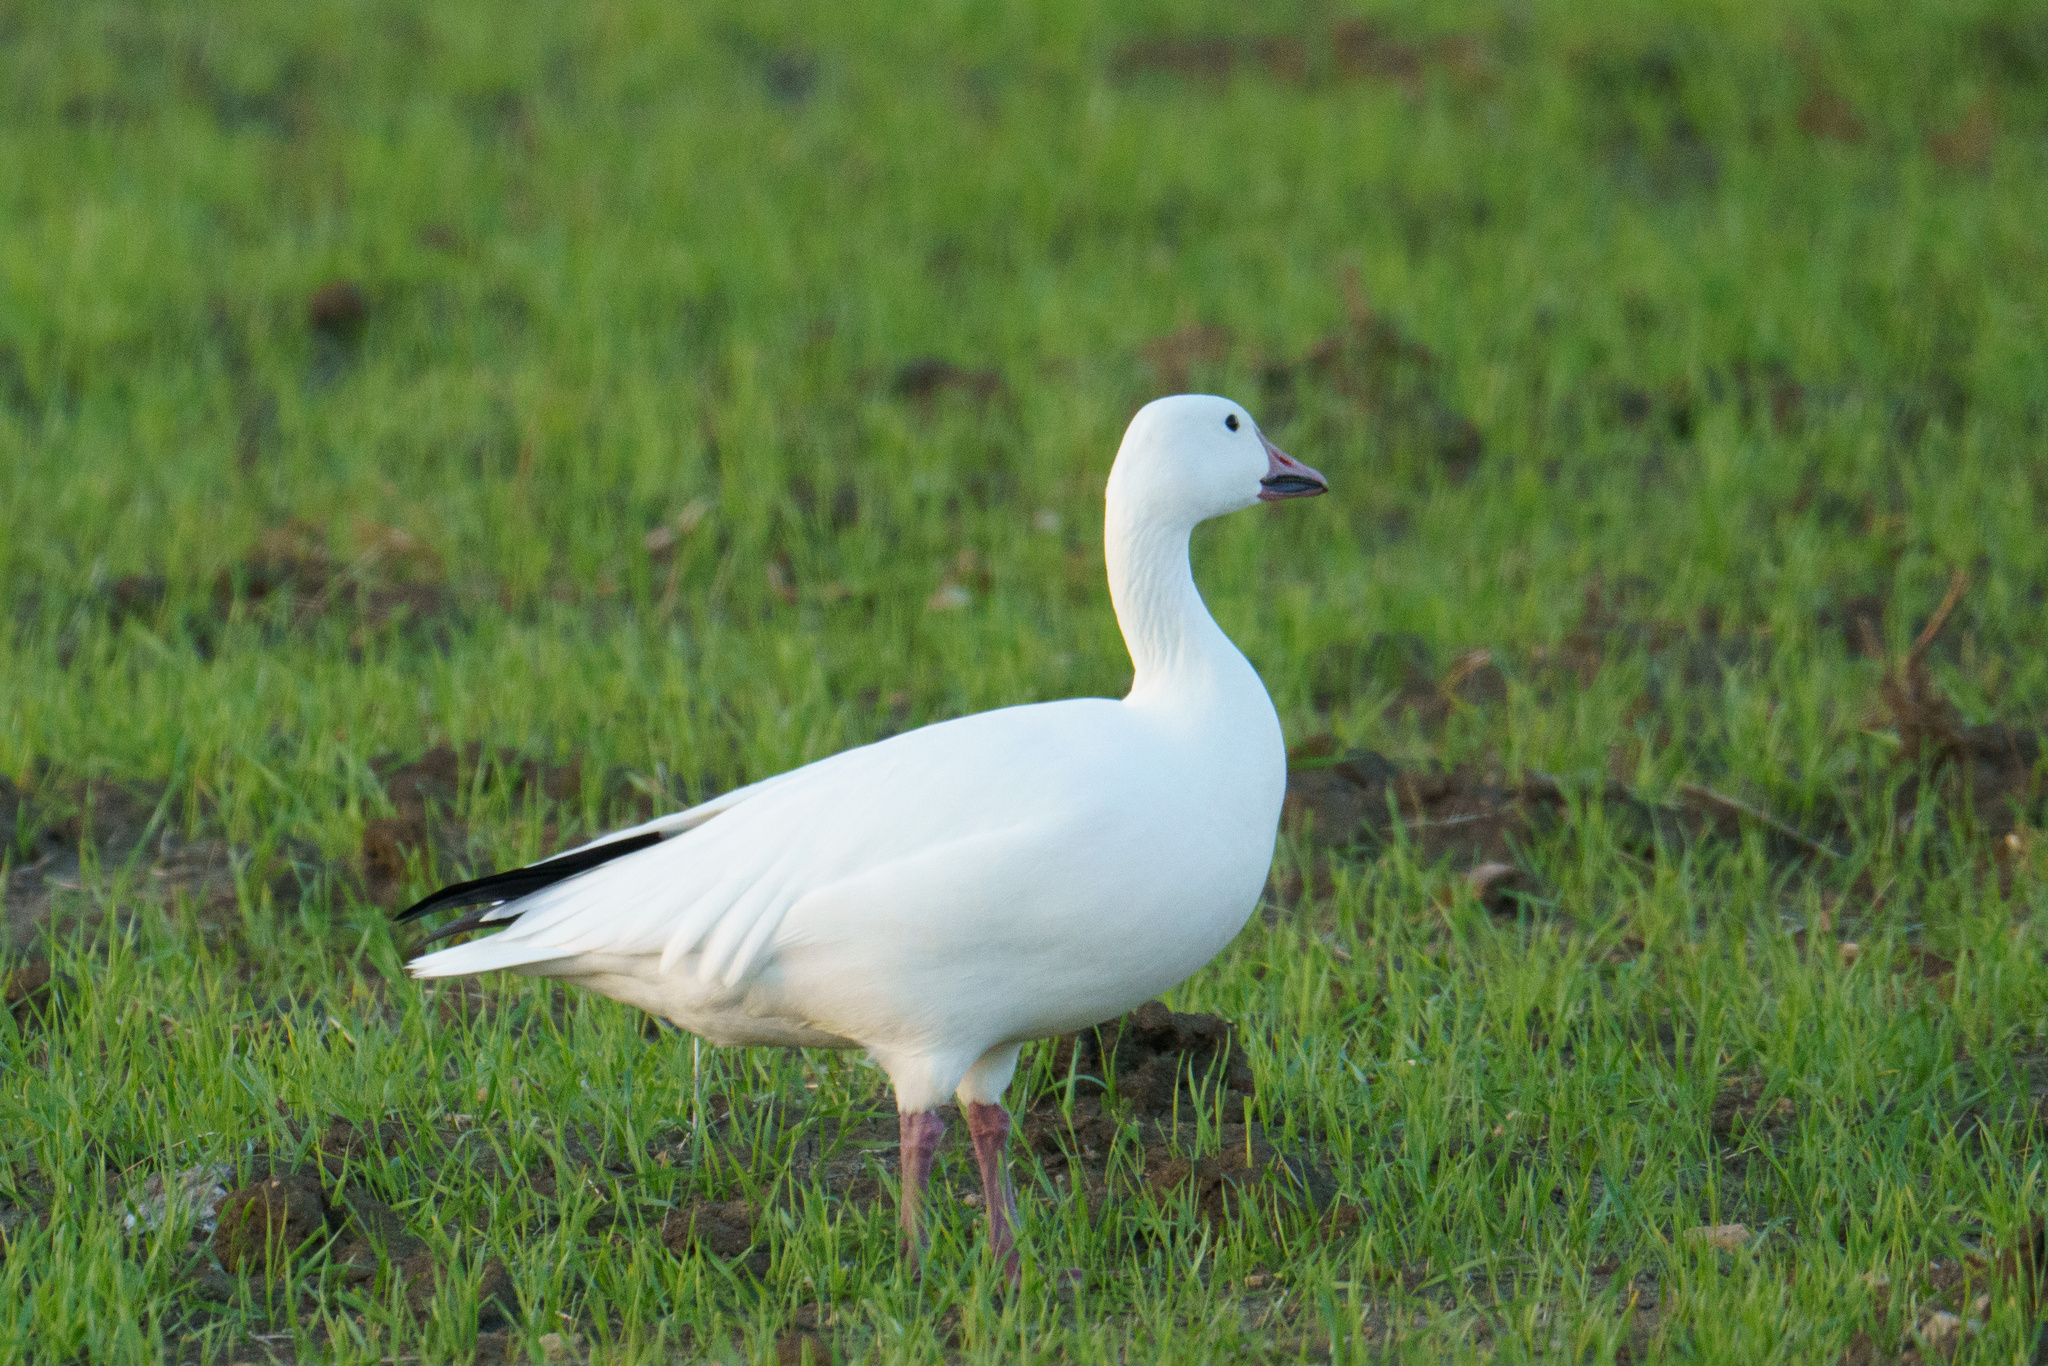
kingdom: Animalia
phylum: Chordata
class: Aves
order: Anseriformes
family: Anatidae
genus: Anser
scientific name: Anser caerulescens
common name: Snow goose
